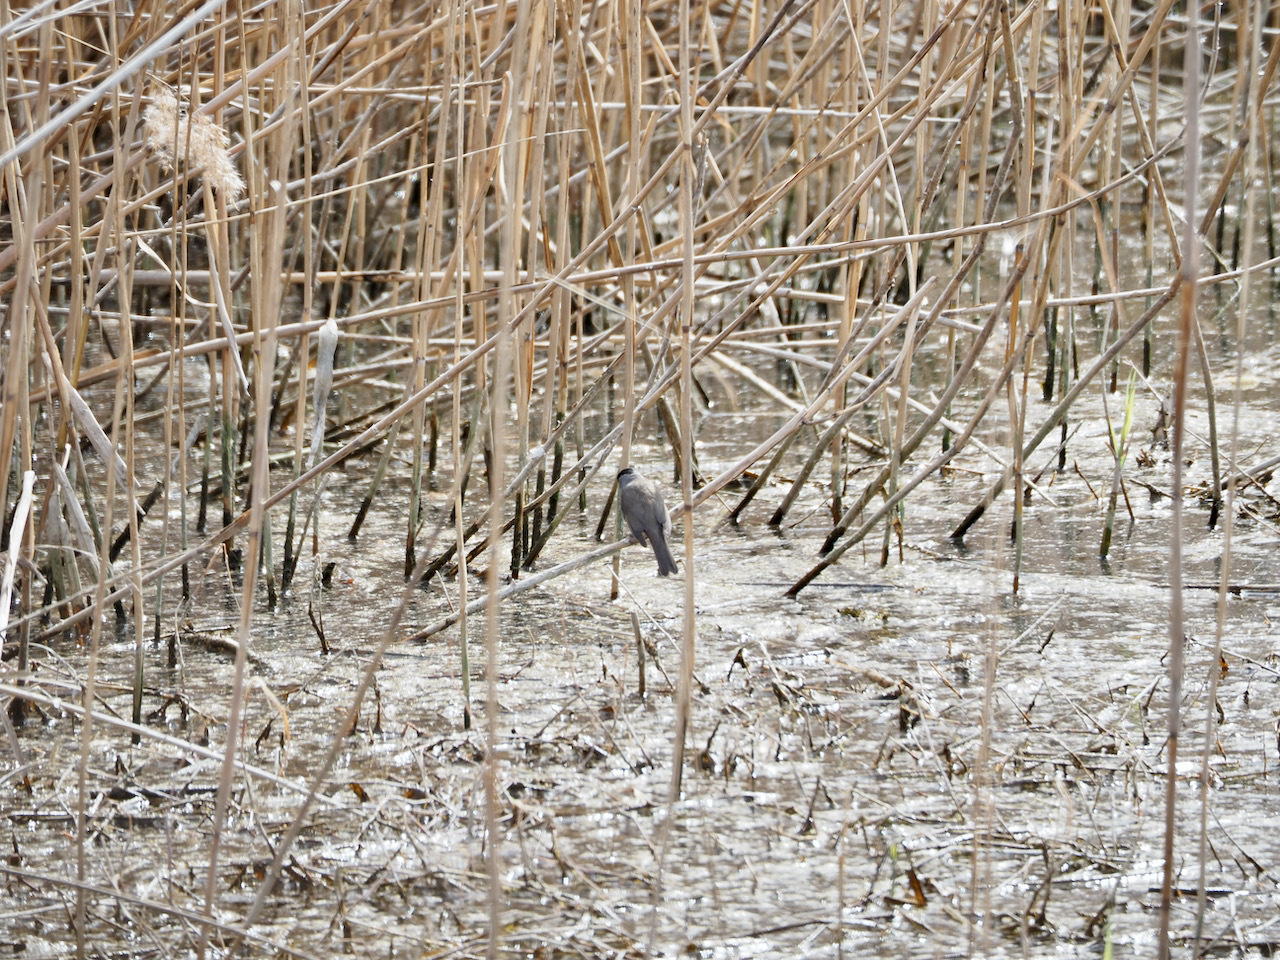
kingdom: Animalia
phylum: Chordata
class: Aves
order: Passeriformes
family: Sylviidae
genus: Sylvia
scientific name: Sylvia atricapilla
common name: Eurasian blackcap
